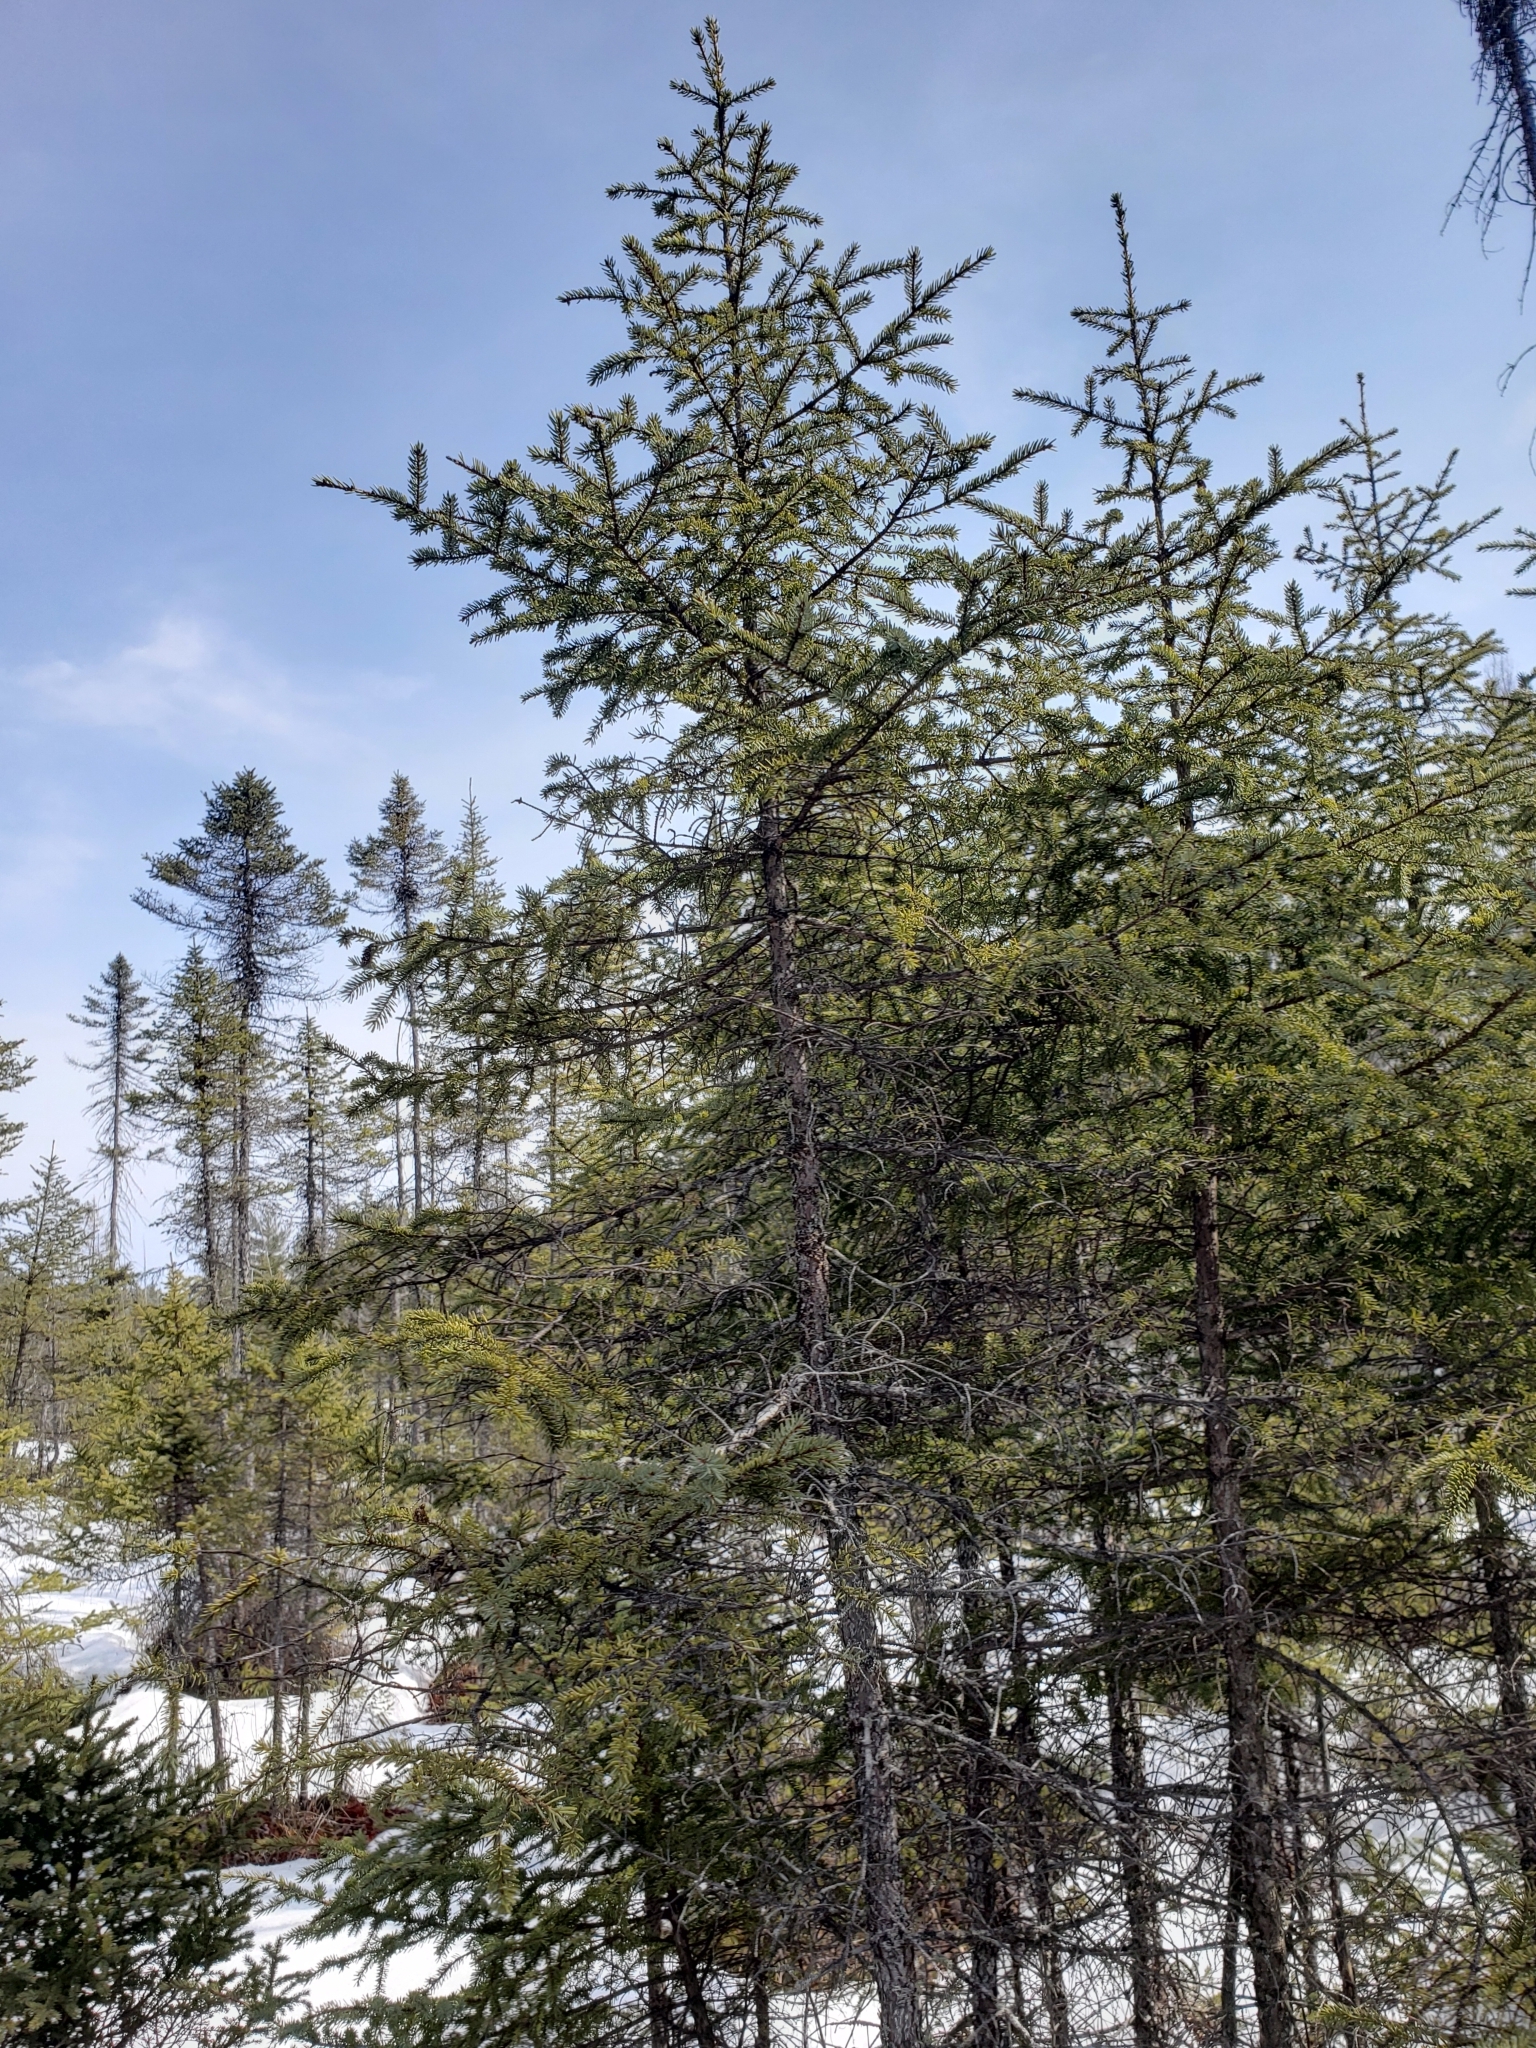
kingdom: Plantae
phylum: Tracheophyta
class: Pinopsida
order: Pinales
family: Pinaceae
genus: Picea
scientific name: Picea mariana
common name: Black spruce
